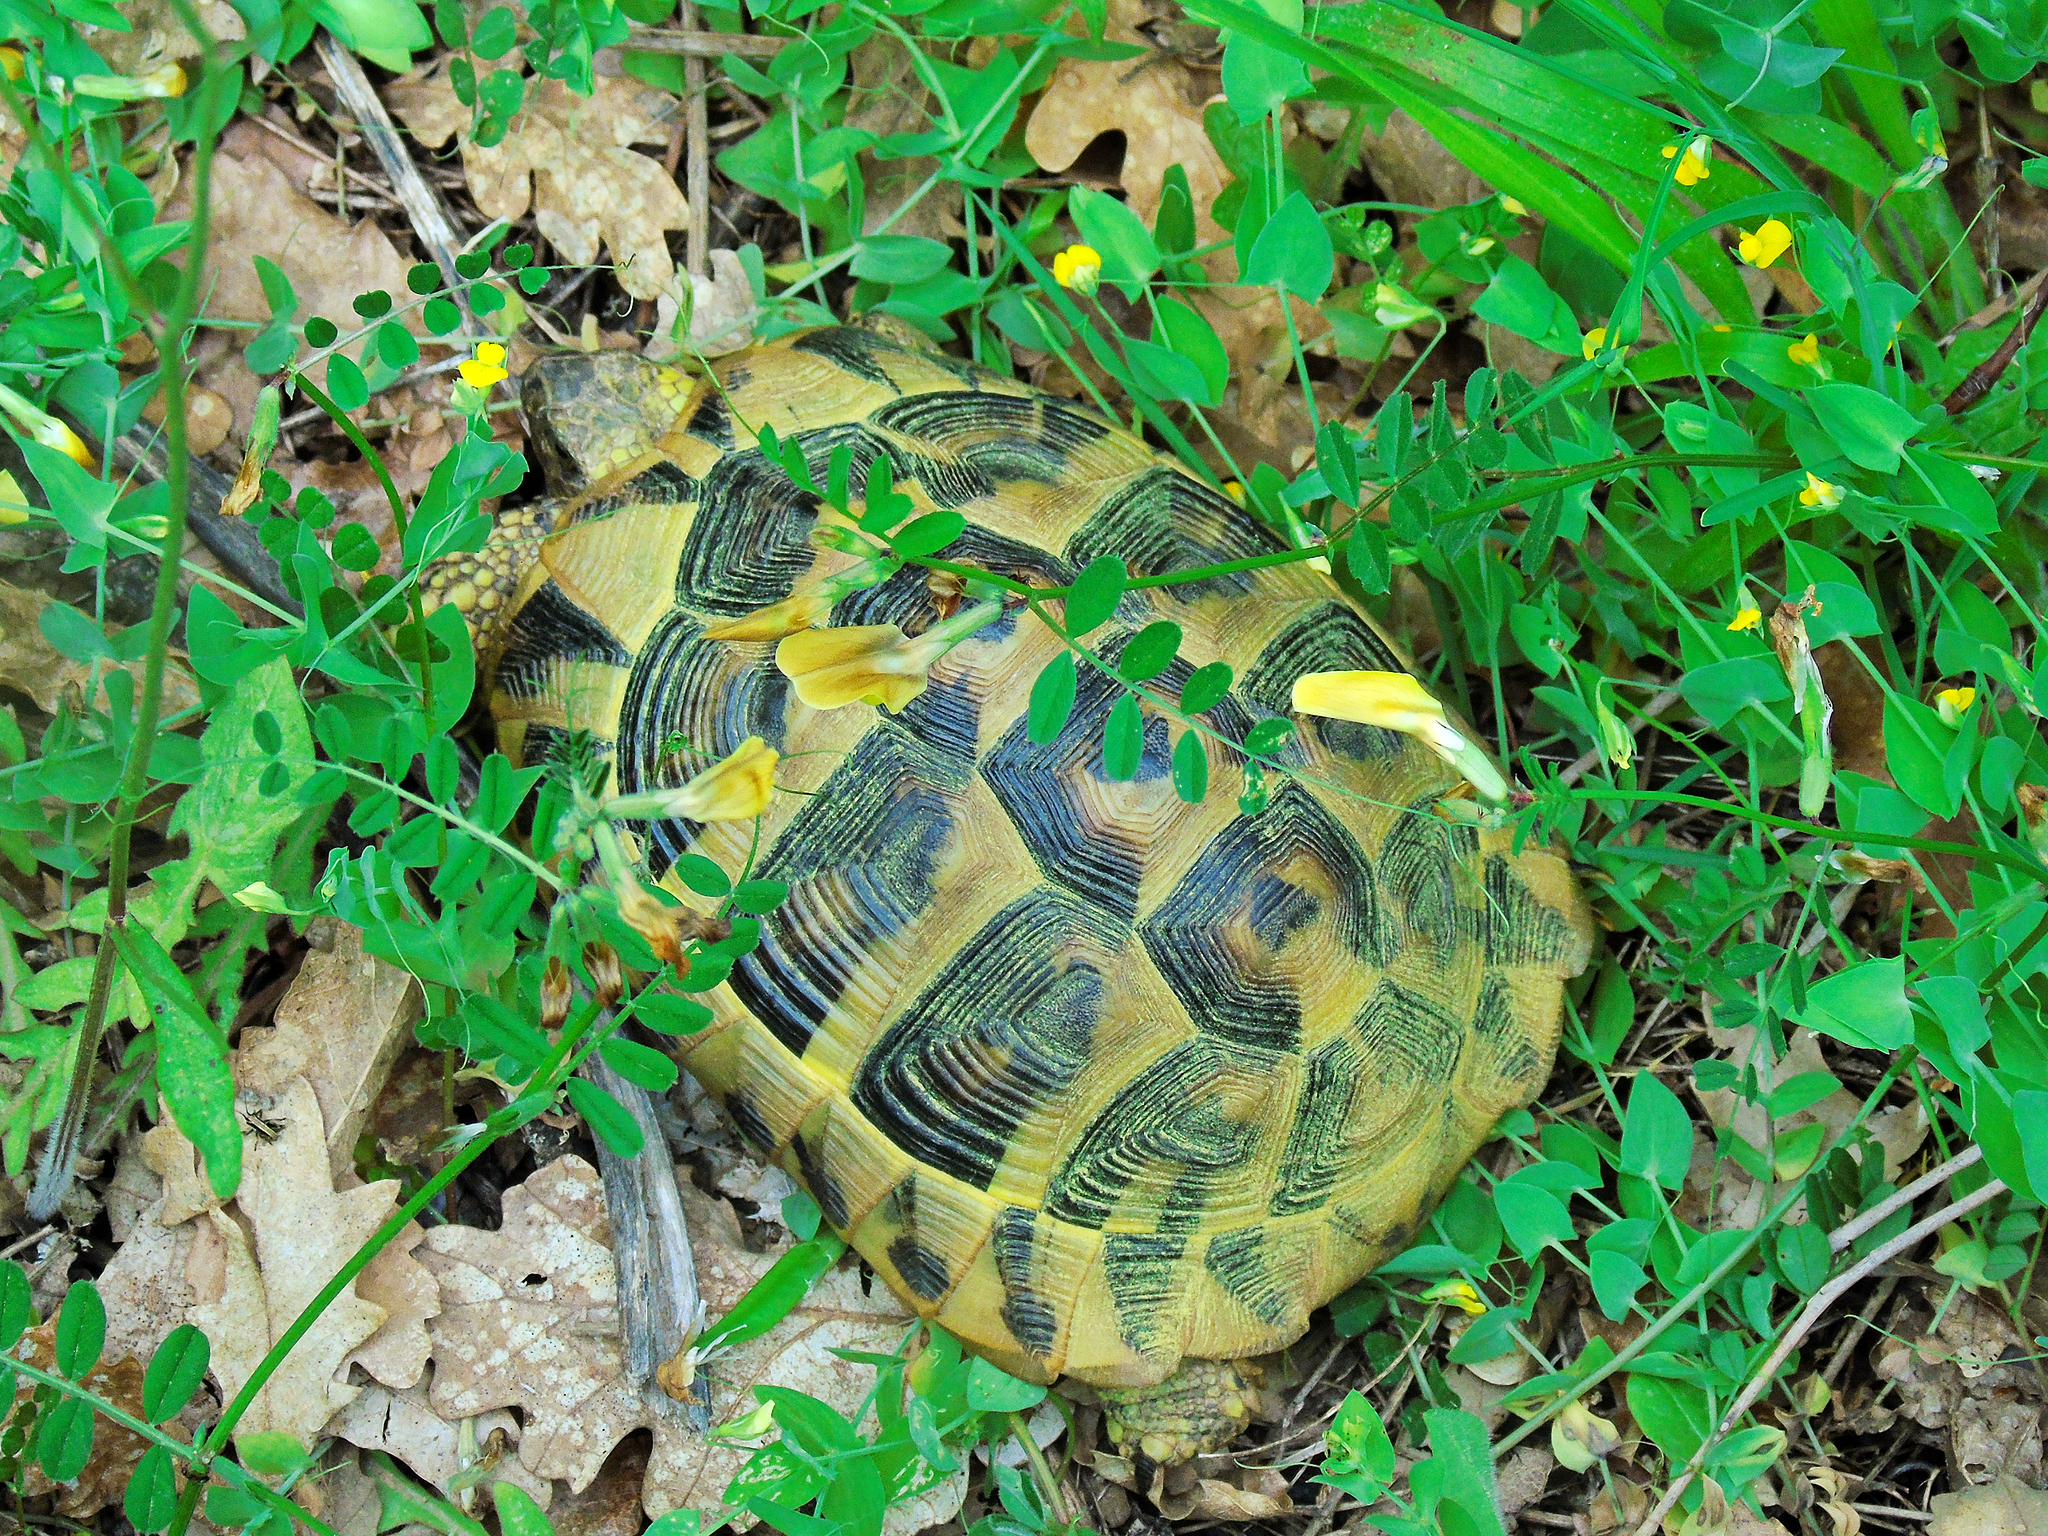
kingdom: Animalia
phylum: Chordata
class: Testudines
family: Testudinidae
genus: Testudo
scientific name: Testudo hermanni
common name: Hermann's tortoise
